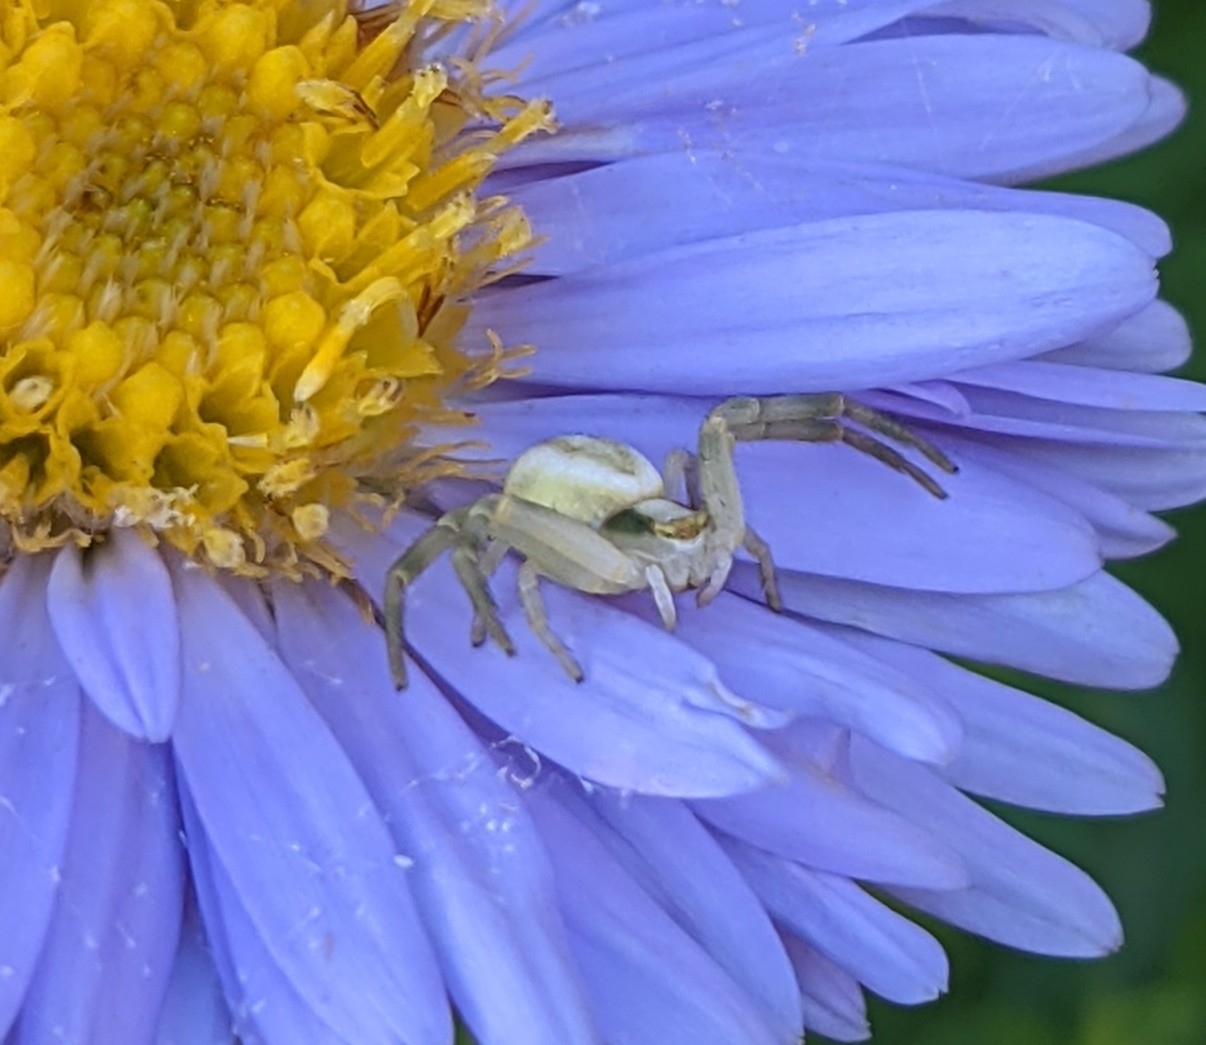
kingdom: Animalia
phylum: Arthropoda
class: Arachnida
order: Araneae
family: Thomisidae
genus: Misumena
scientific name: Misumena vatia
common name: Goldenrod crab spider
